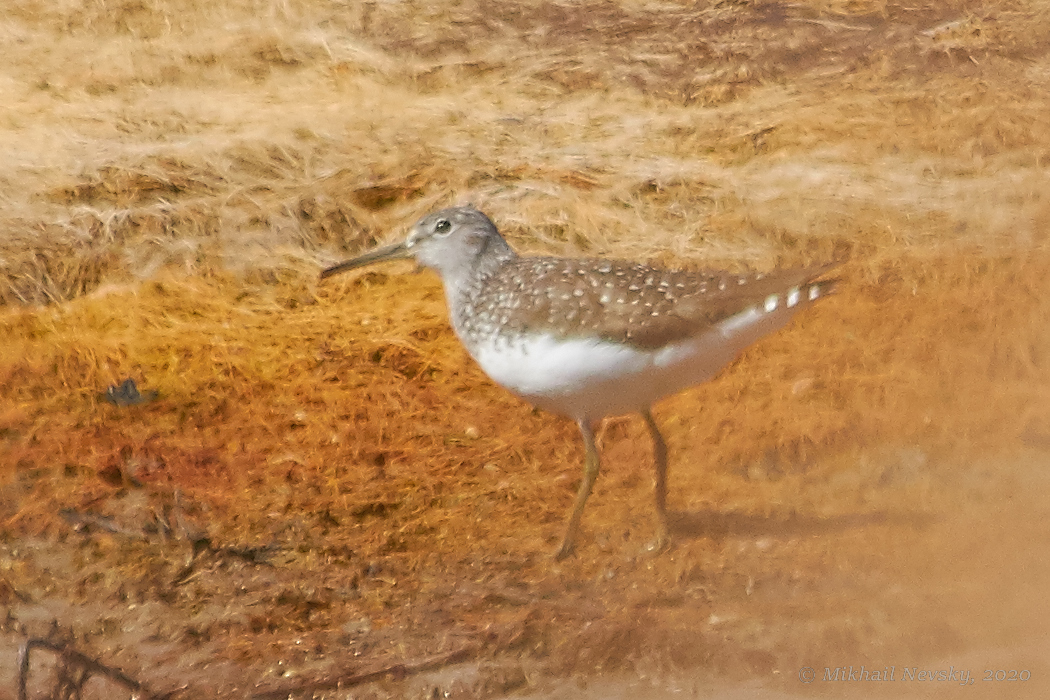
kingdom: Animalia
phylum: Chordata
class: Aves
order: Charadriiformes
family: Scolopacidae
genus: Tringa
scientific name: Tringa ochropus
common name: Green sandpiper
